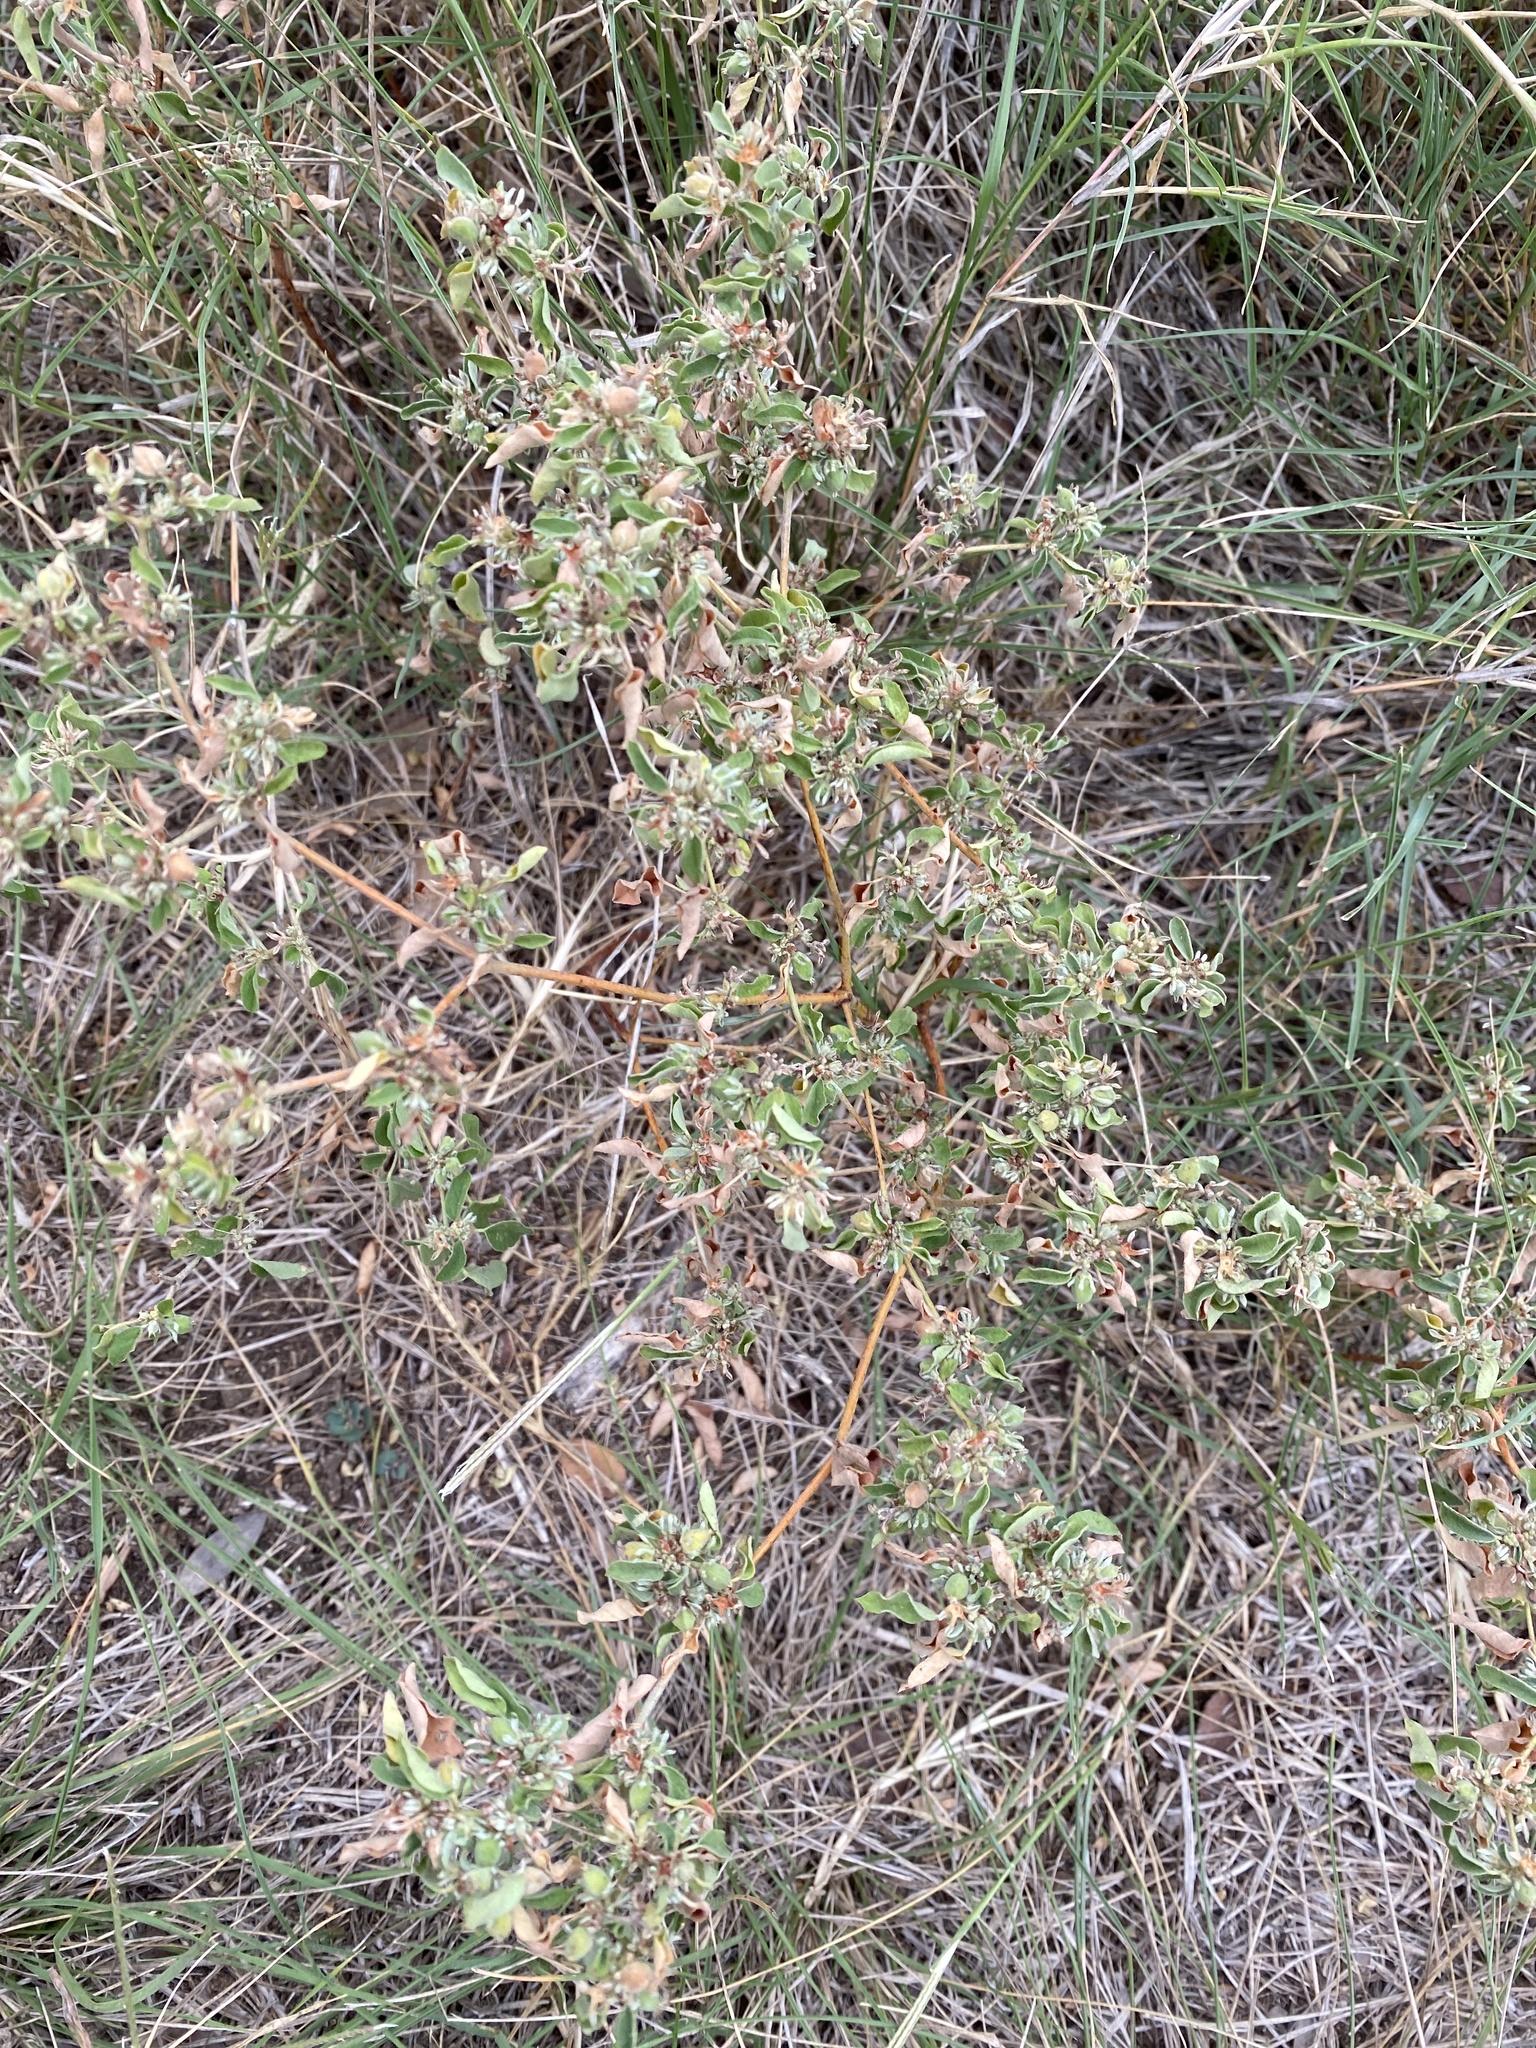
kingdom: Plantae
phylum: Tracheophyta
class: Magnoliopsida
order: Malpighiales
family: Euphorbiaceae
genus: Croton
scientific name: Croton monanthogynus
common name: One-seed croton
